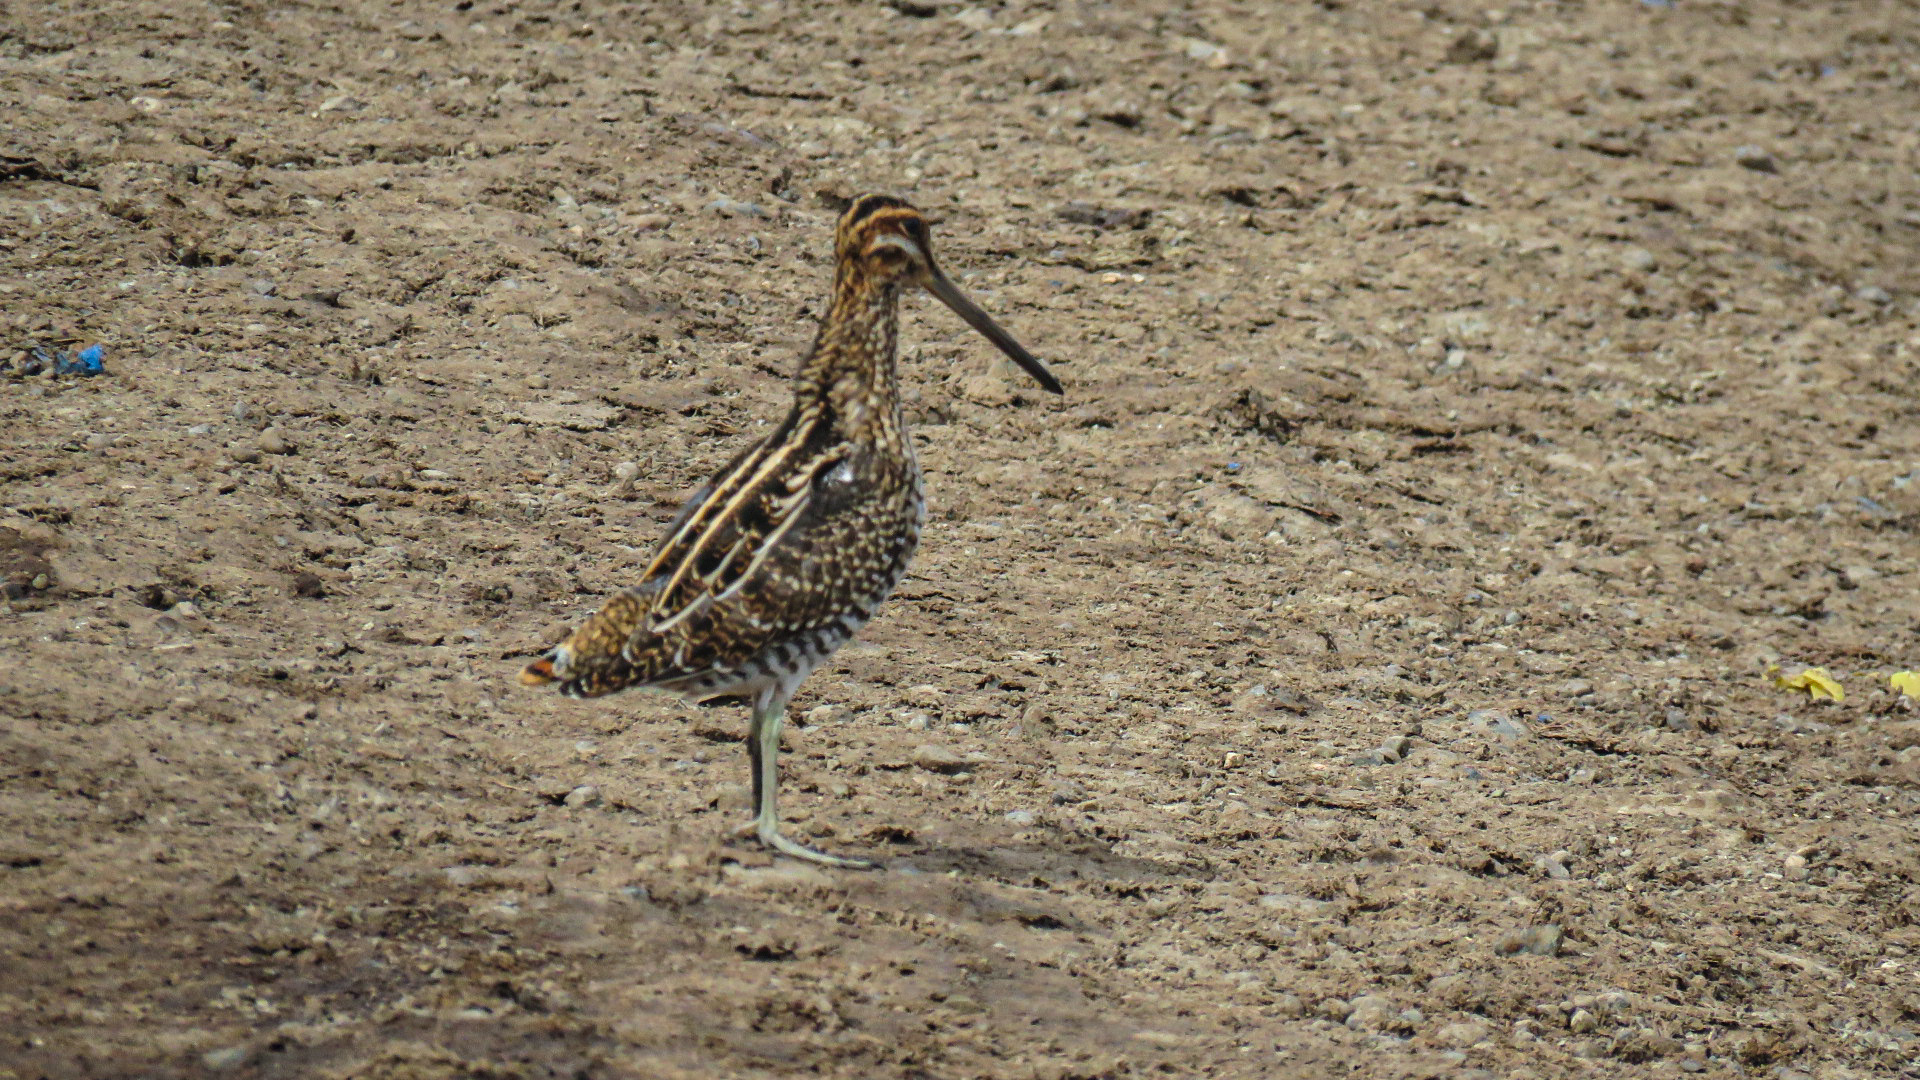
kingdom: Animalia
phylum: Chordata
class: Aves
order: Charadriiformes
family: Scolopacidae
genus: Gallinago
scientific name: Gallinago delicata
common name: Wilson's snipe
